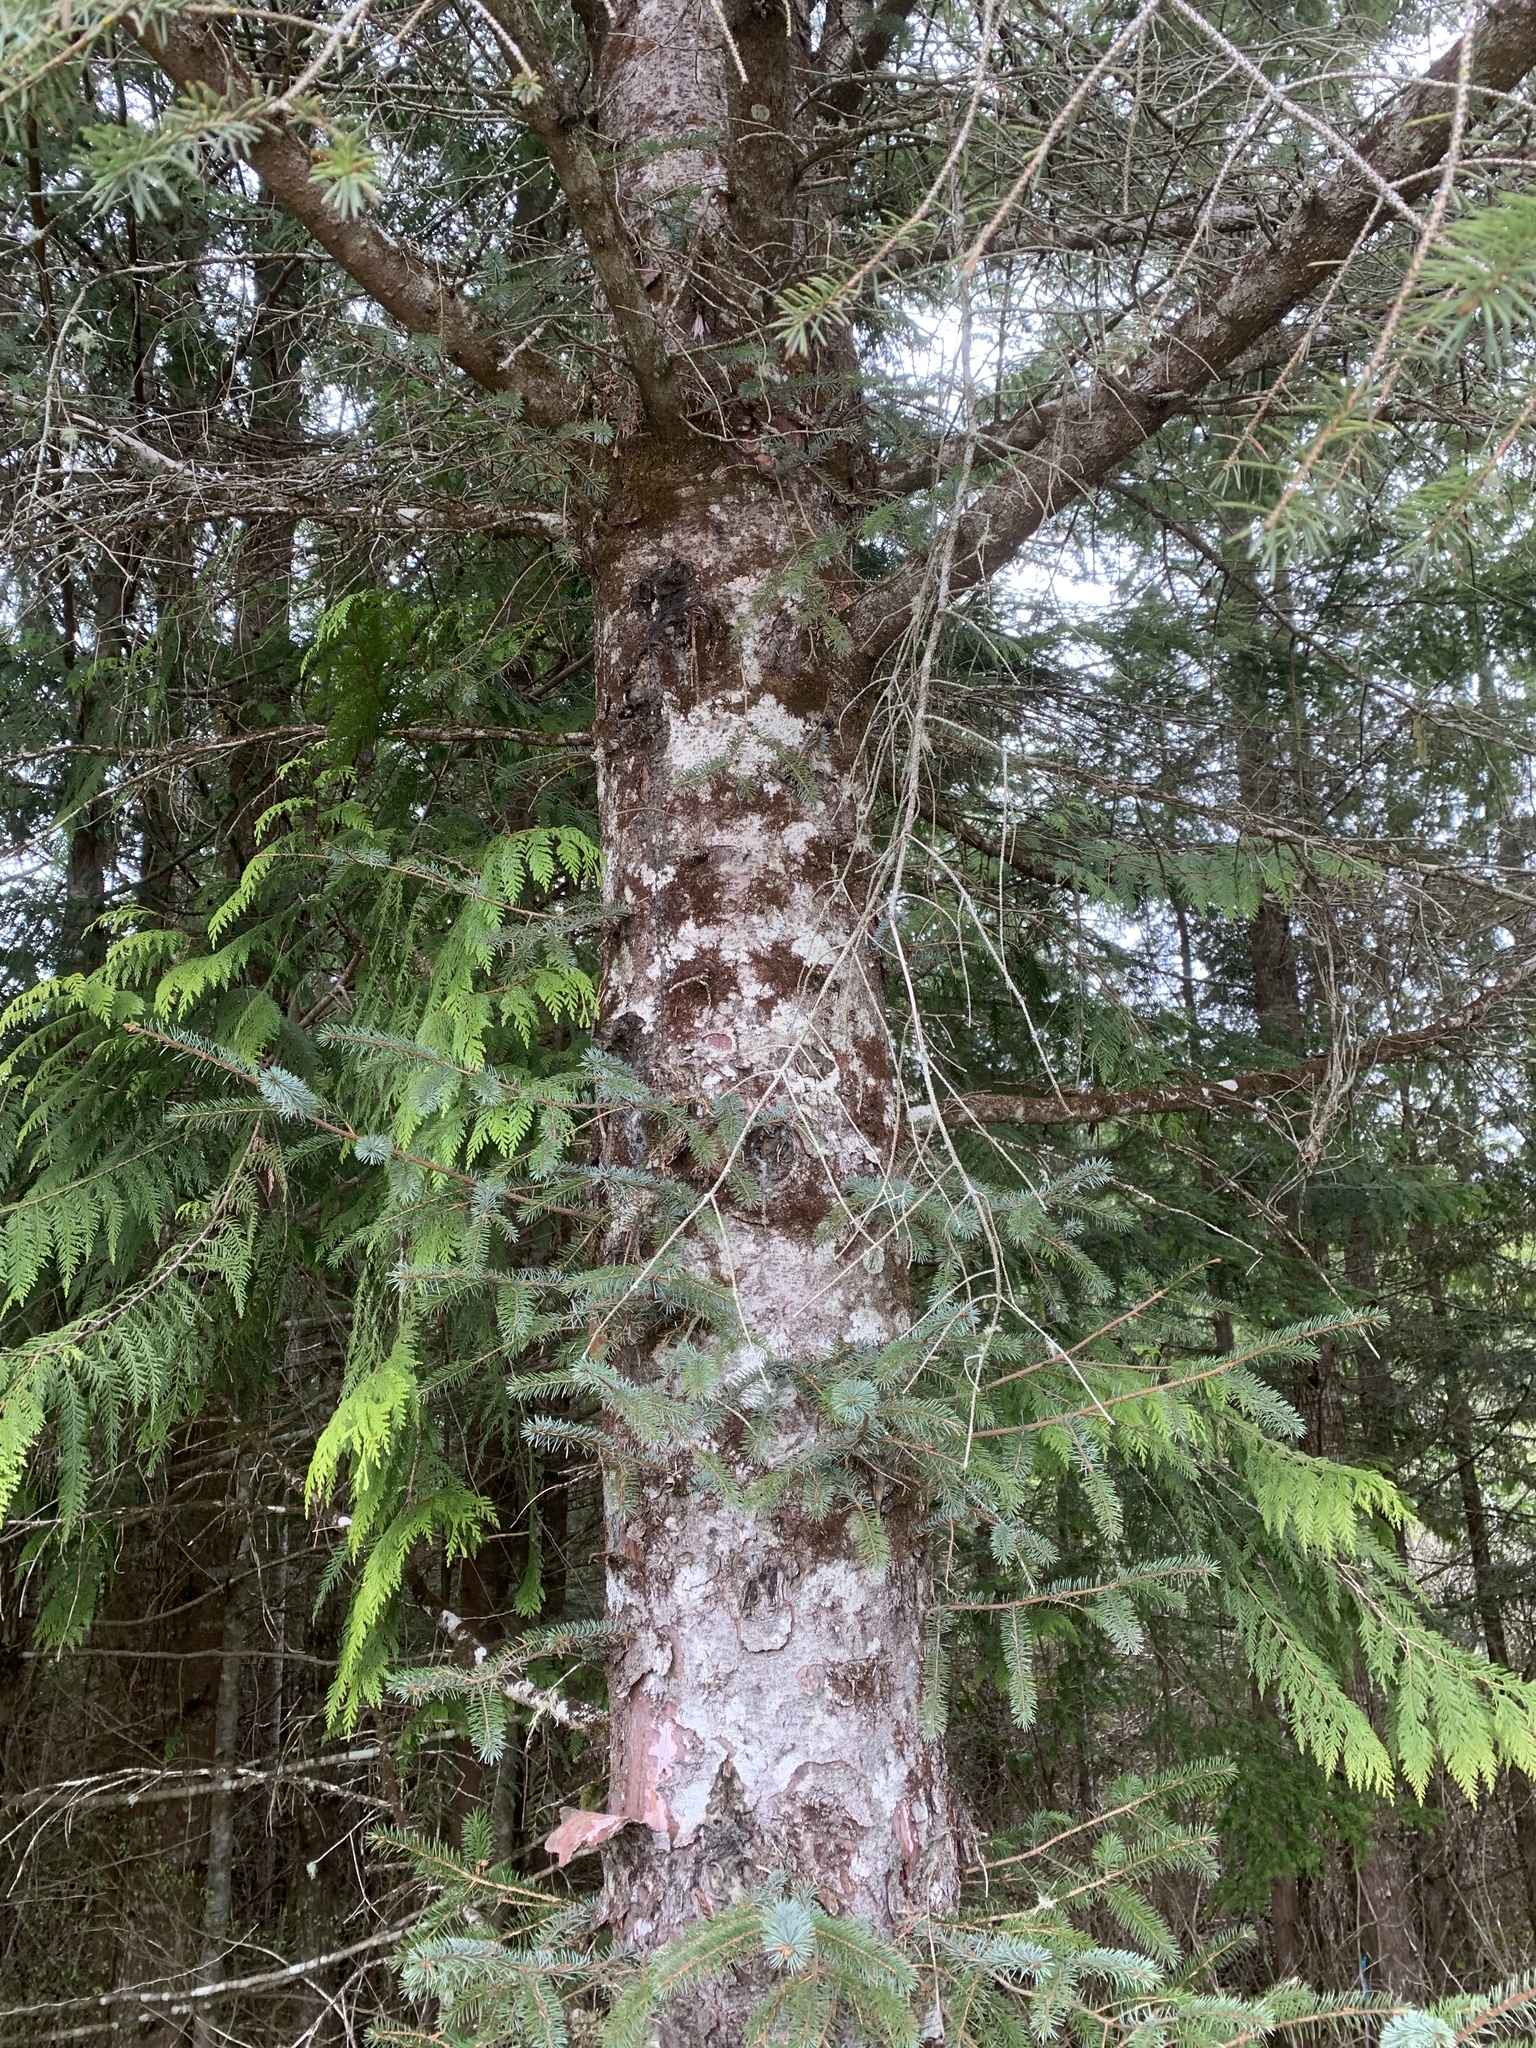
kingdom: Plantae
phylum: Tracheophyta
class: Pinopsida
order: Pinales
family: Pinaceae
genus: Picea
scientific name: Picea sitchensis
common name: Sitka spruce
